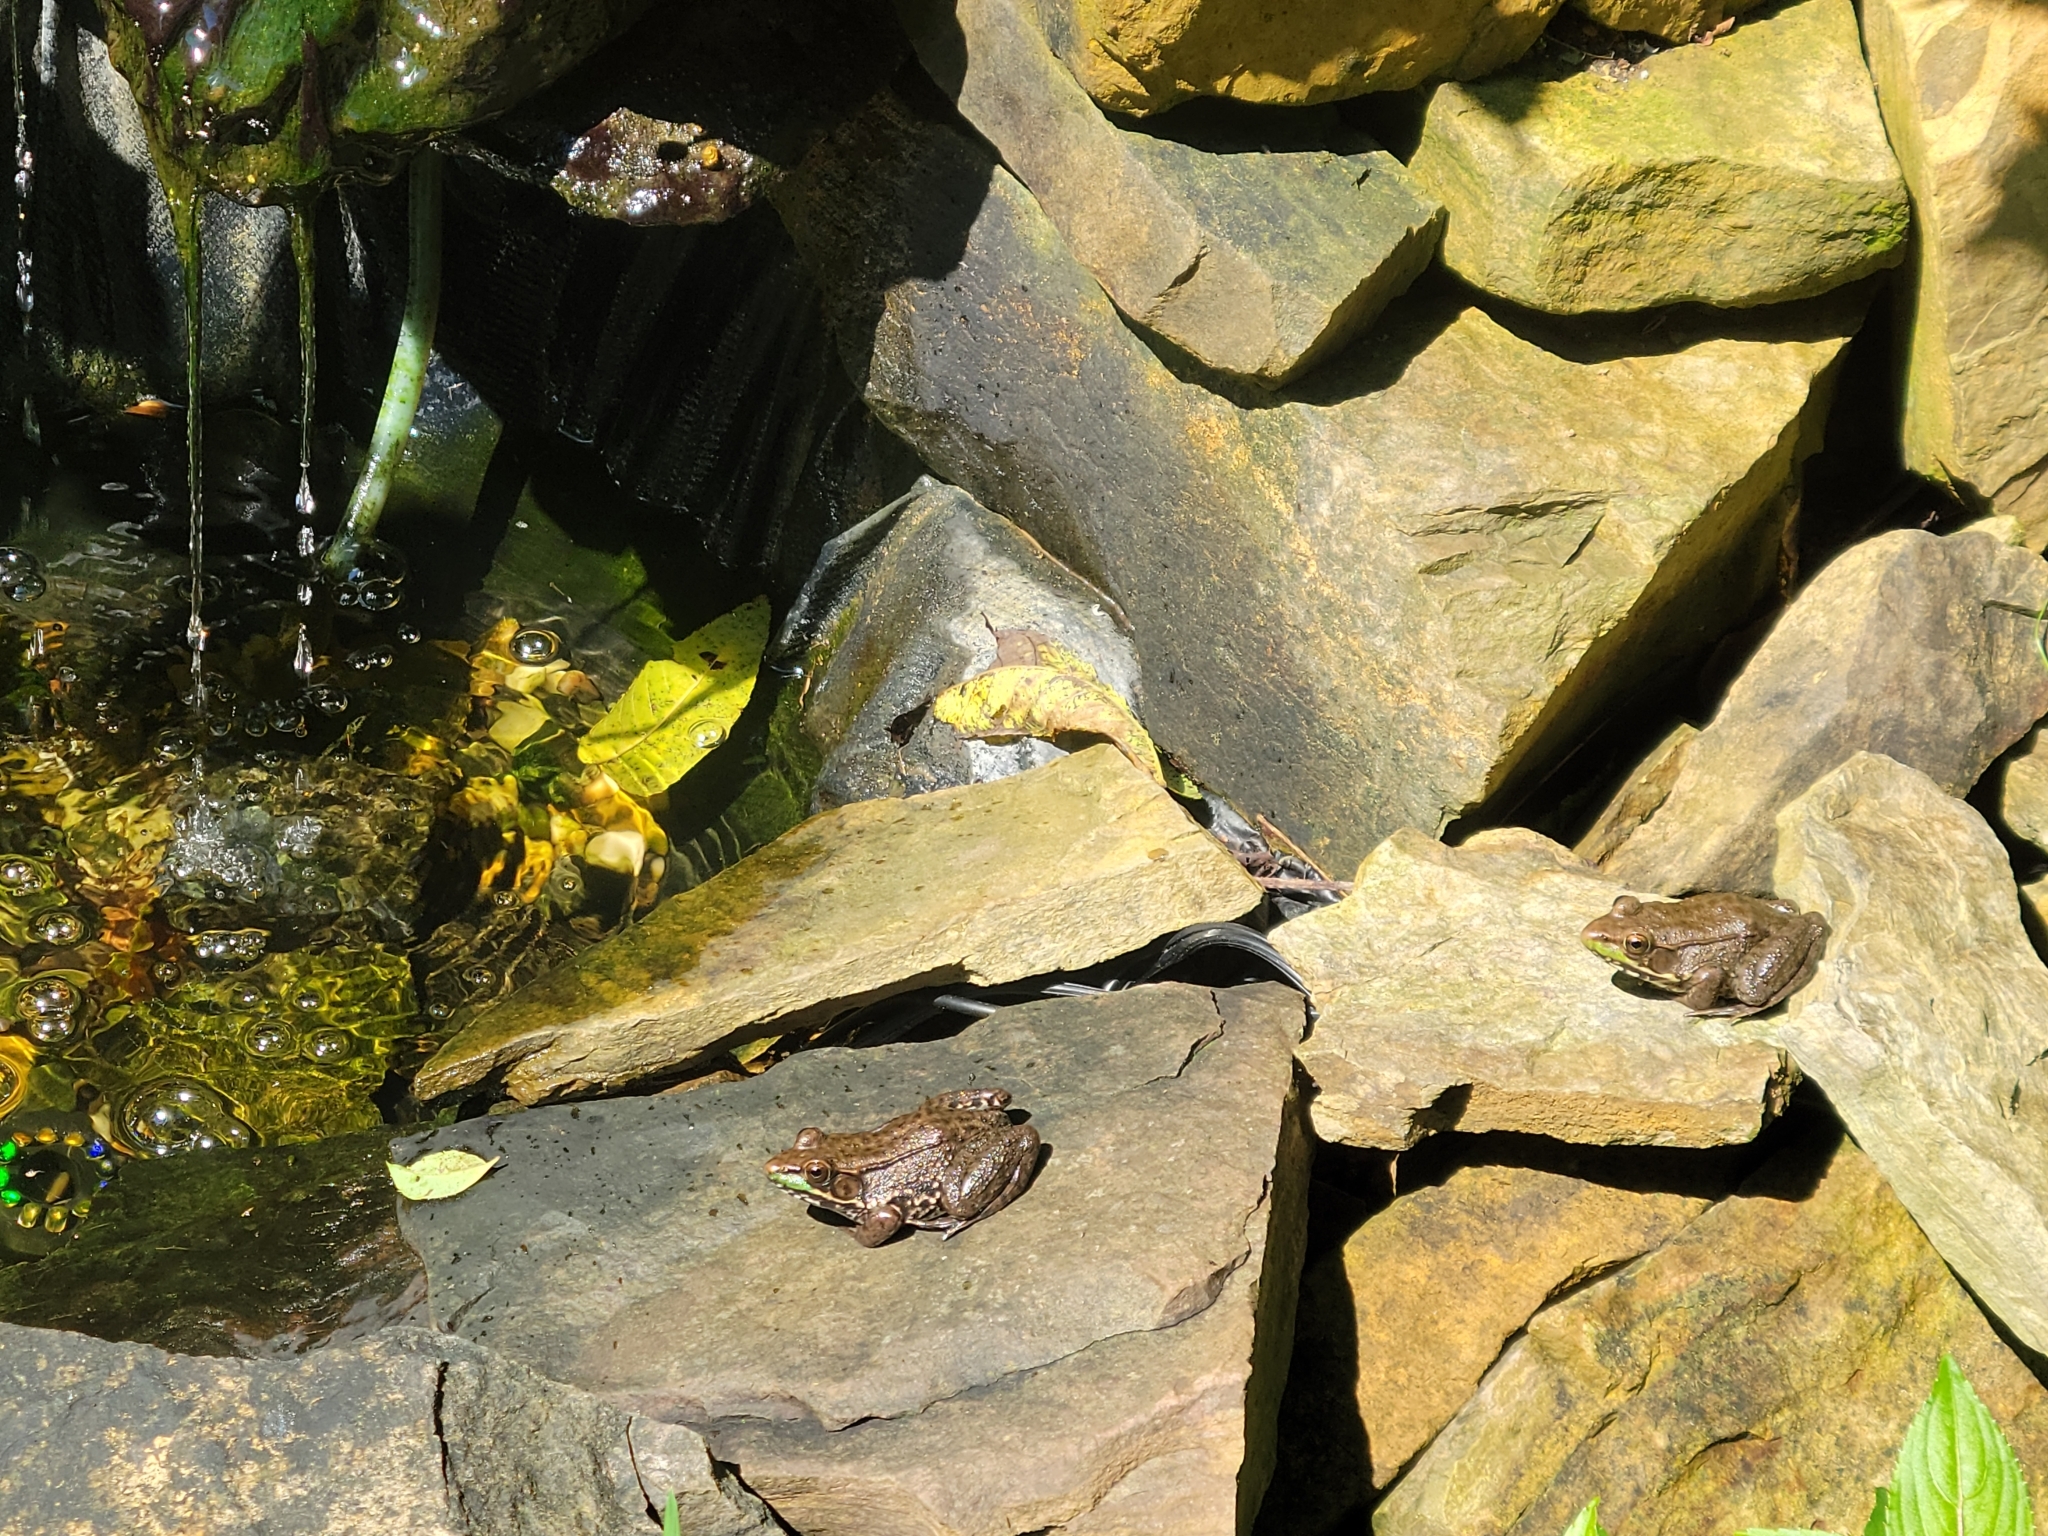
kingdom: Animalia
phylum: Chordata
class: Amphibia
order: Anura
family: Ranidae
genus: Lithobates
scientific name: Lithobates clamitans
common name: Green frog
